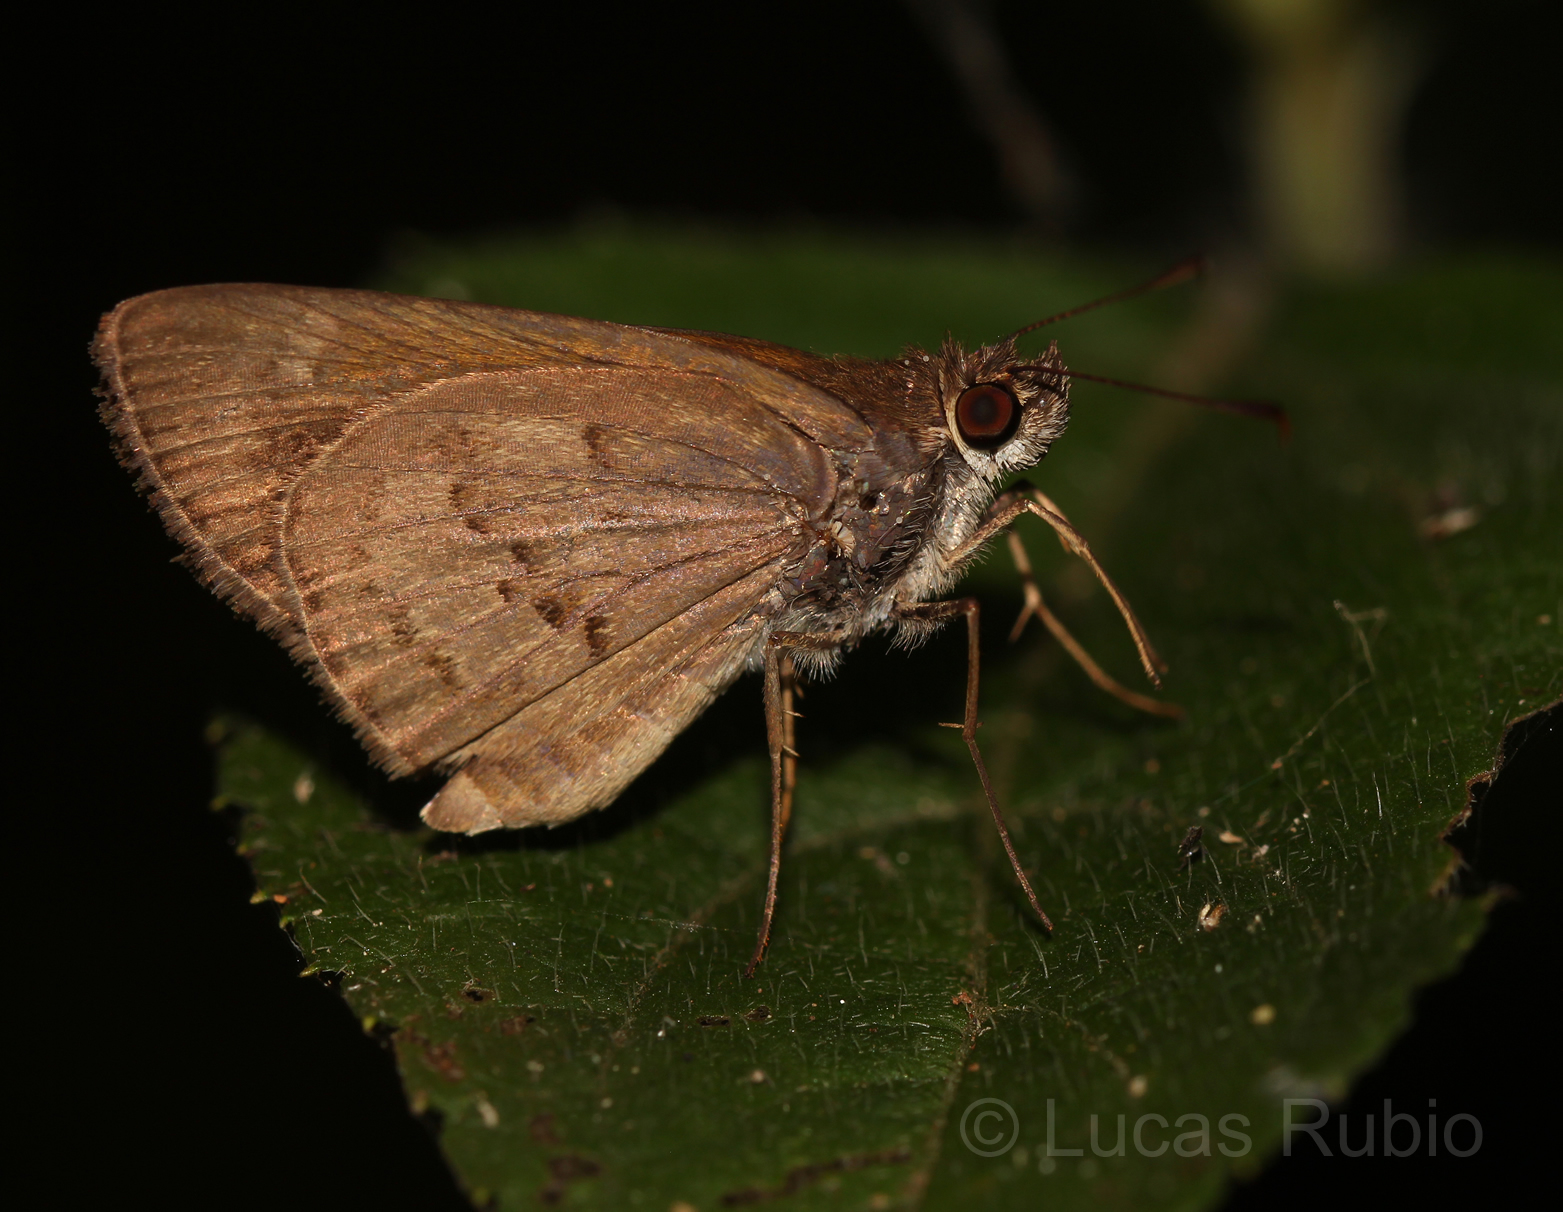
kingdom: Animalia
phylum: Arthropoda
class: Insecta
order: Lepidoptera
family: Hesperiidae
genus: Cymaenes
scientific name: Cymaenes gisca
